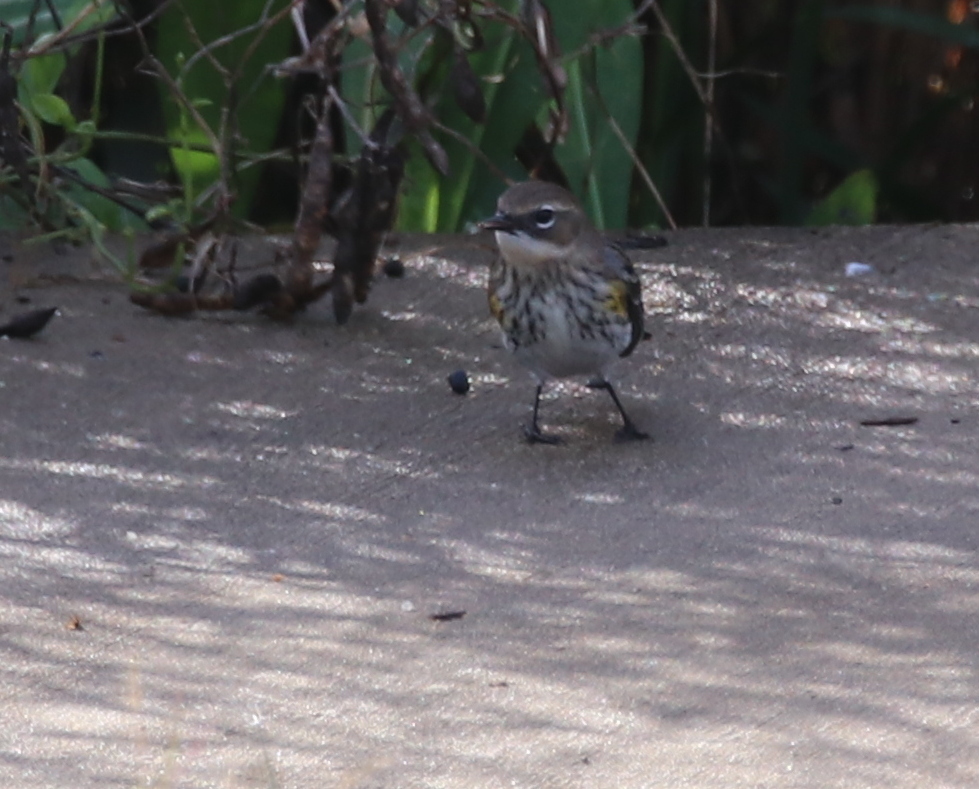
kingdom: Animalia
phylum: Chordata
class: Aves
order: Passeriformes
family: Parulidae
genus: Setophaga
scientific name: Setophaga coronata
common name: Myrtle warbler
